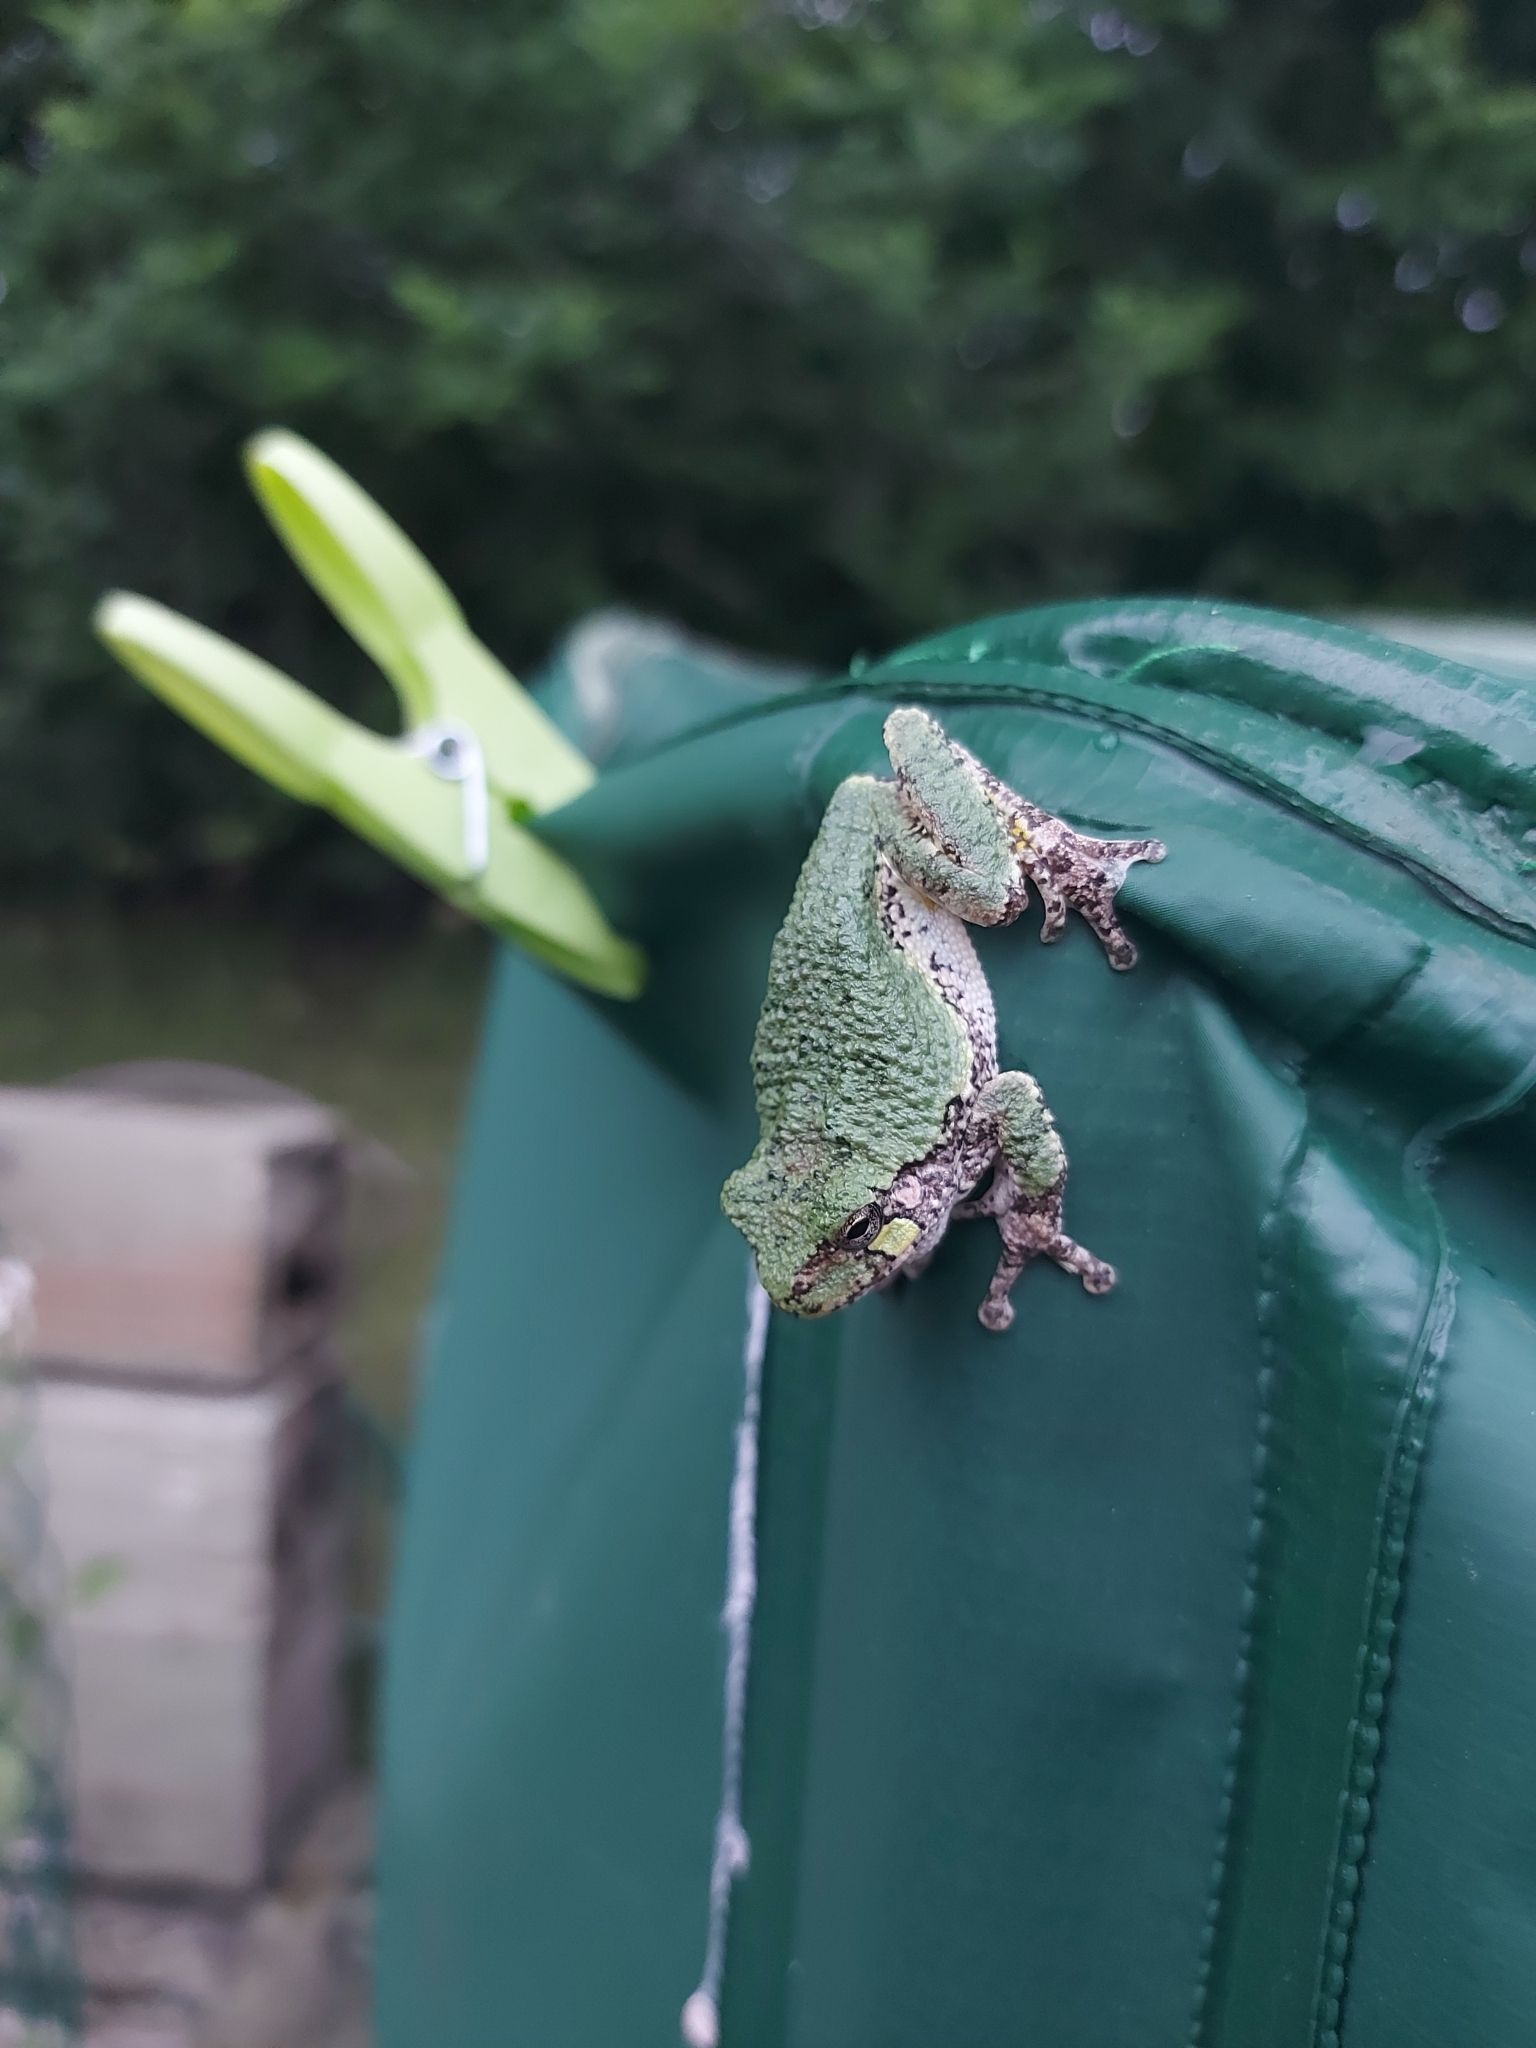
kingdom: Animalia
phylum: Chordata
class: Amphibia
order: Anura
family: Hylidae
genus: Dryophytes
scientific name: Dryophytes versicolor
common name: Gray treefrog
